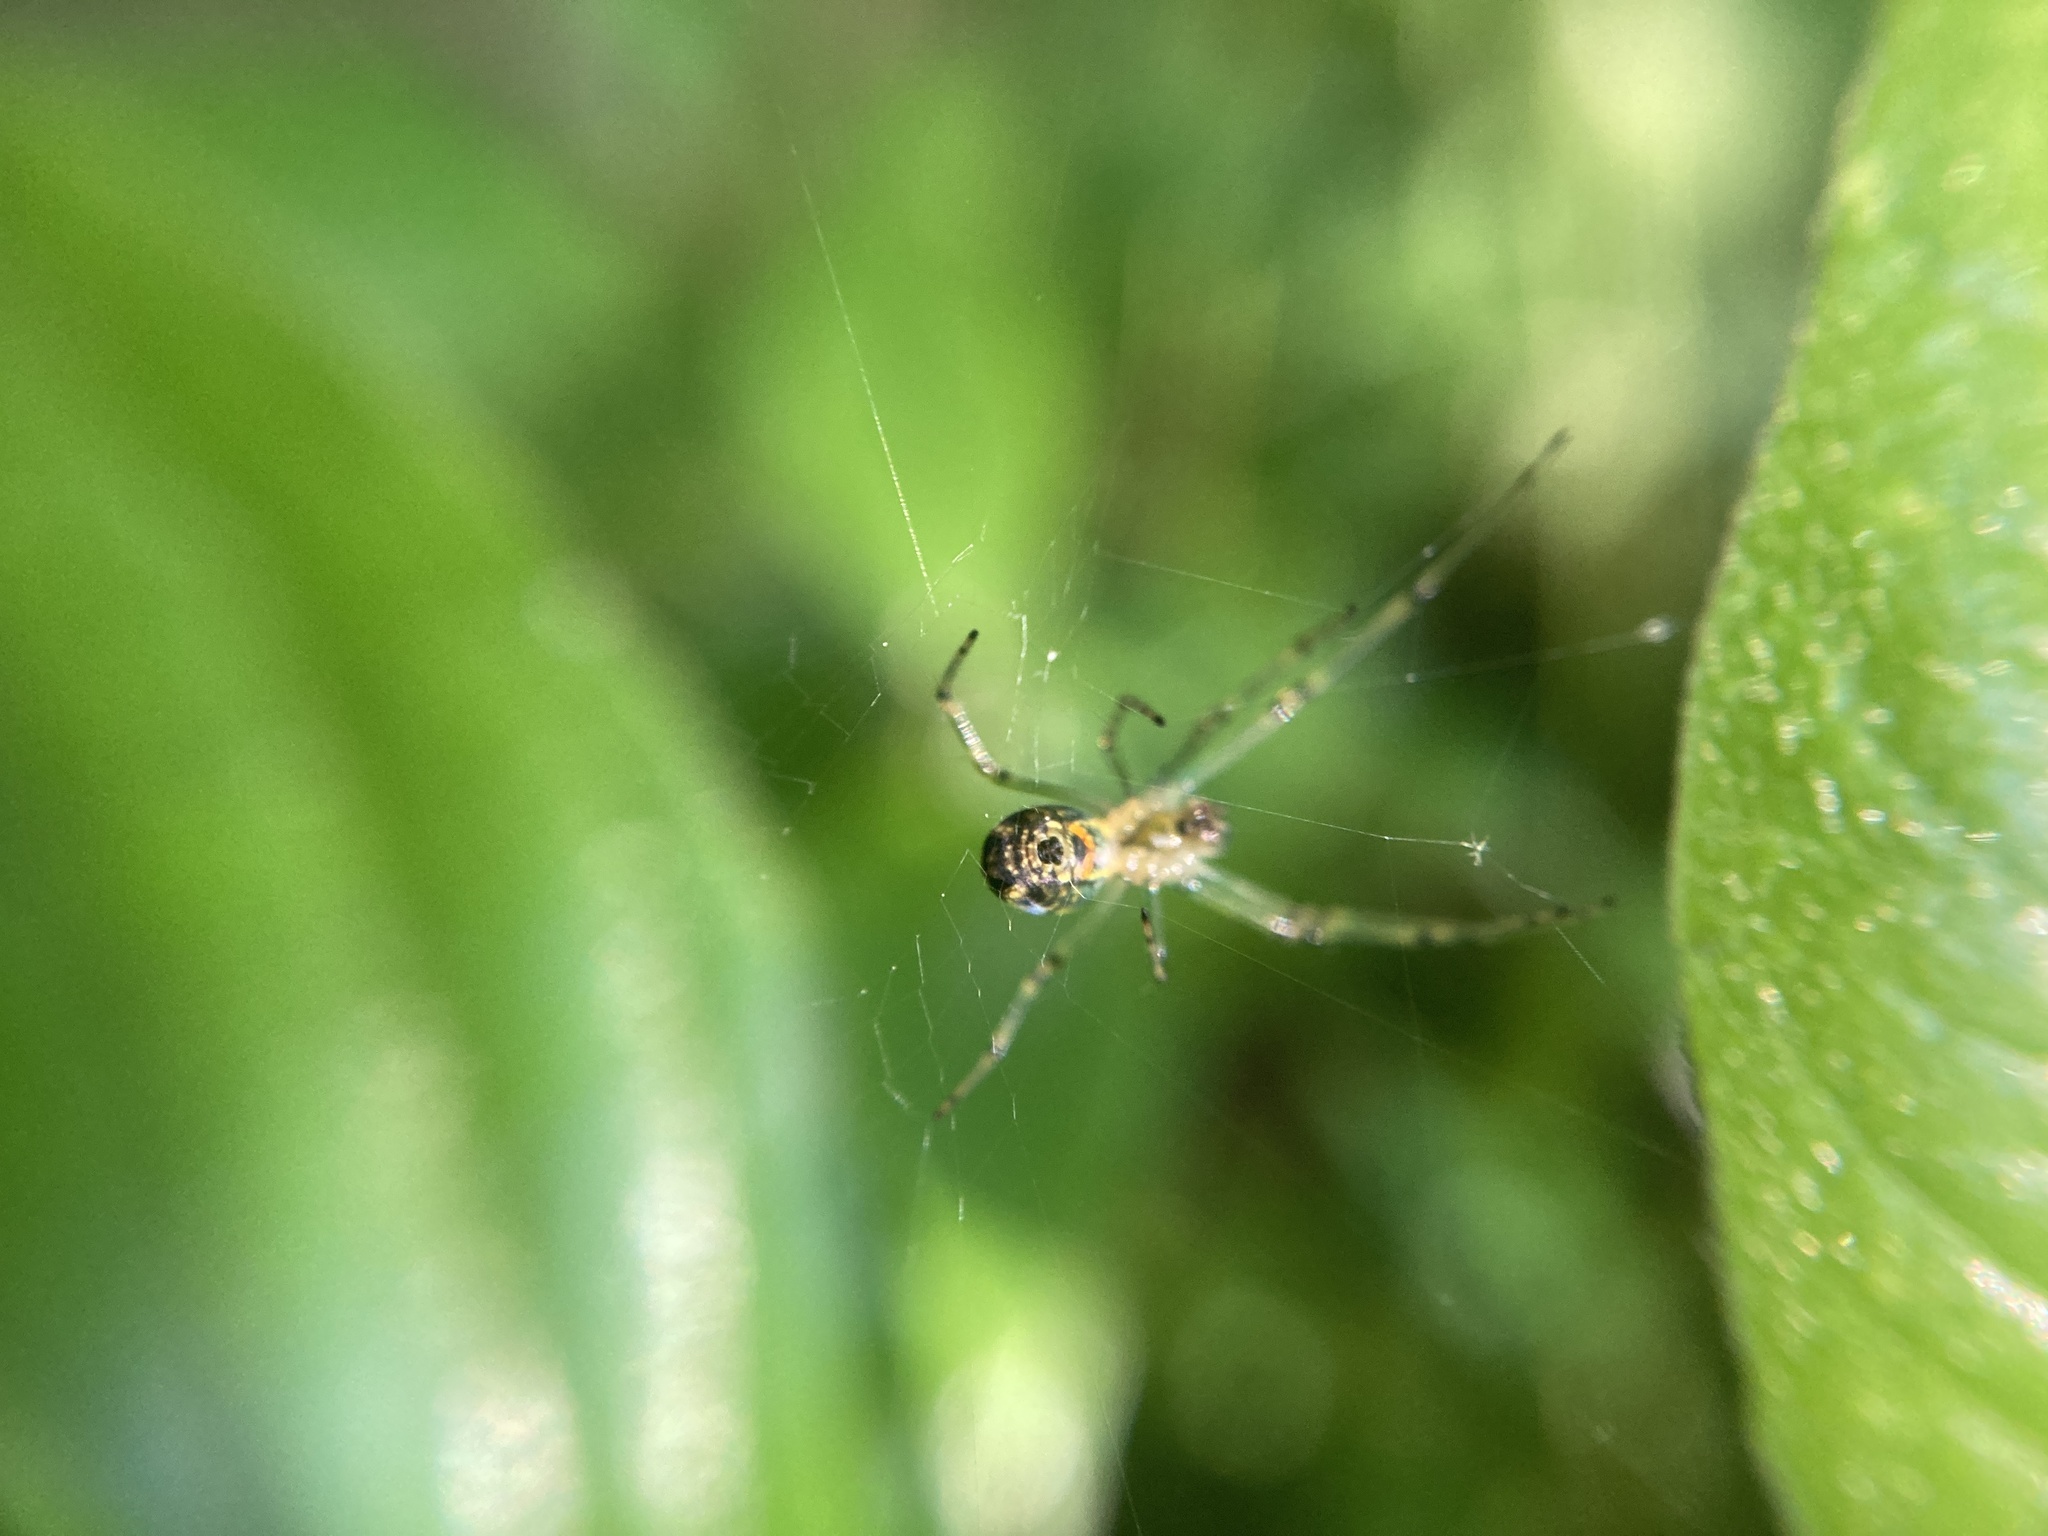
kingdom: Animalia
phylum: Arthropoda
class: Arachnida
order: Araneae
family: Tetragnathidae
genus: Leucauge
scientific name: Leucauge venusta
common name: Longjawed orb weavers
